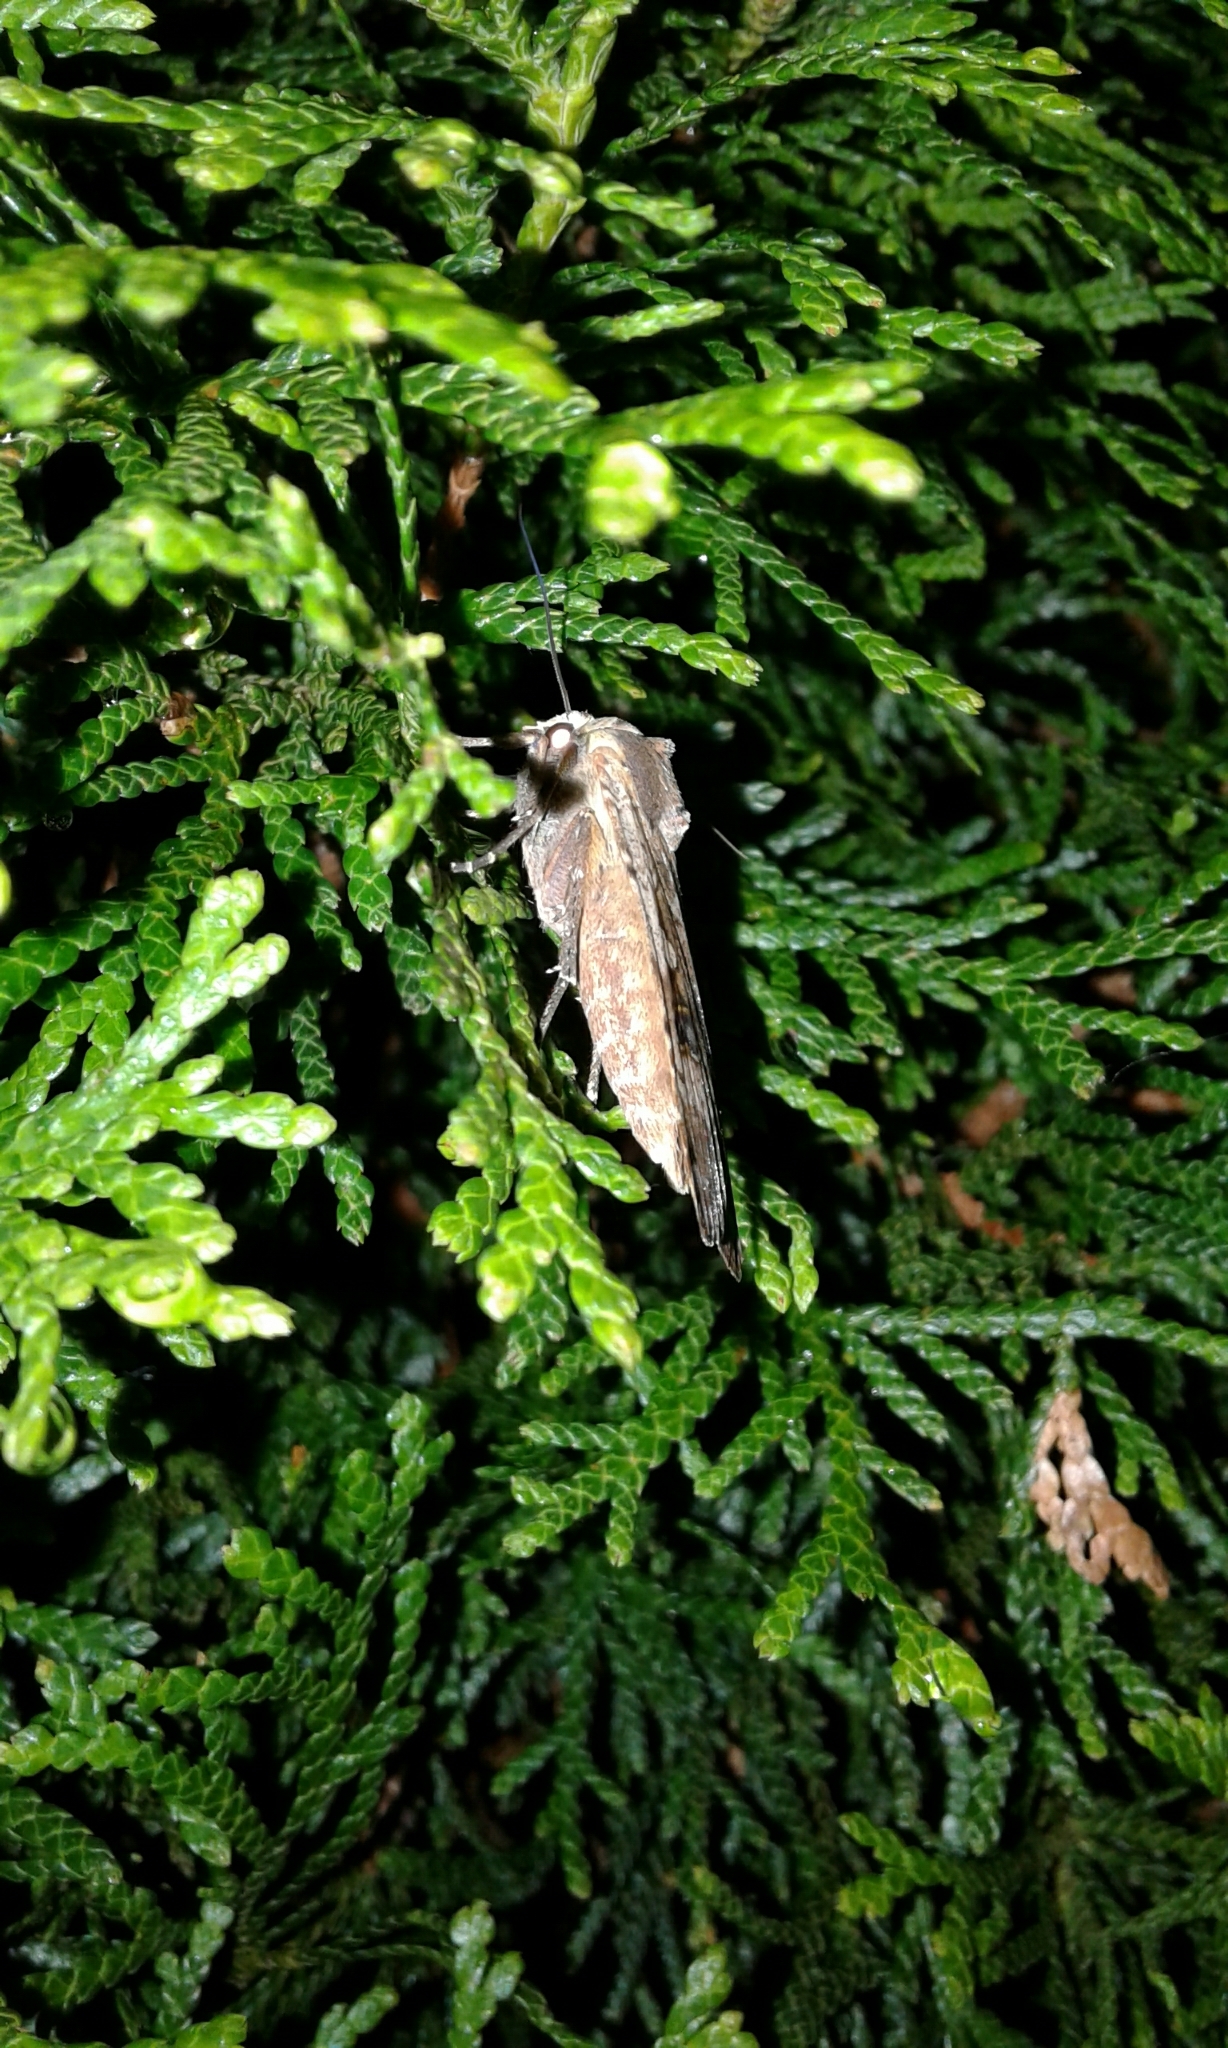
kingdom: Animalia
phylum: Arthropoda
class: Insecta
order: Lepidoptera
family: Noctuidae
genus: Noctua
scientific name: Noctua pronuba
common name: Large yellow underwing
